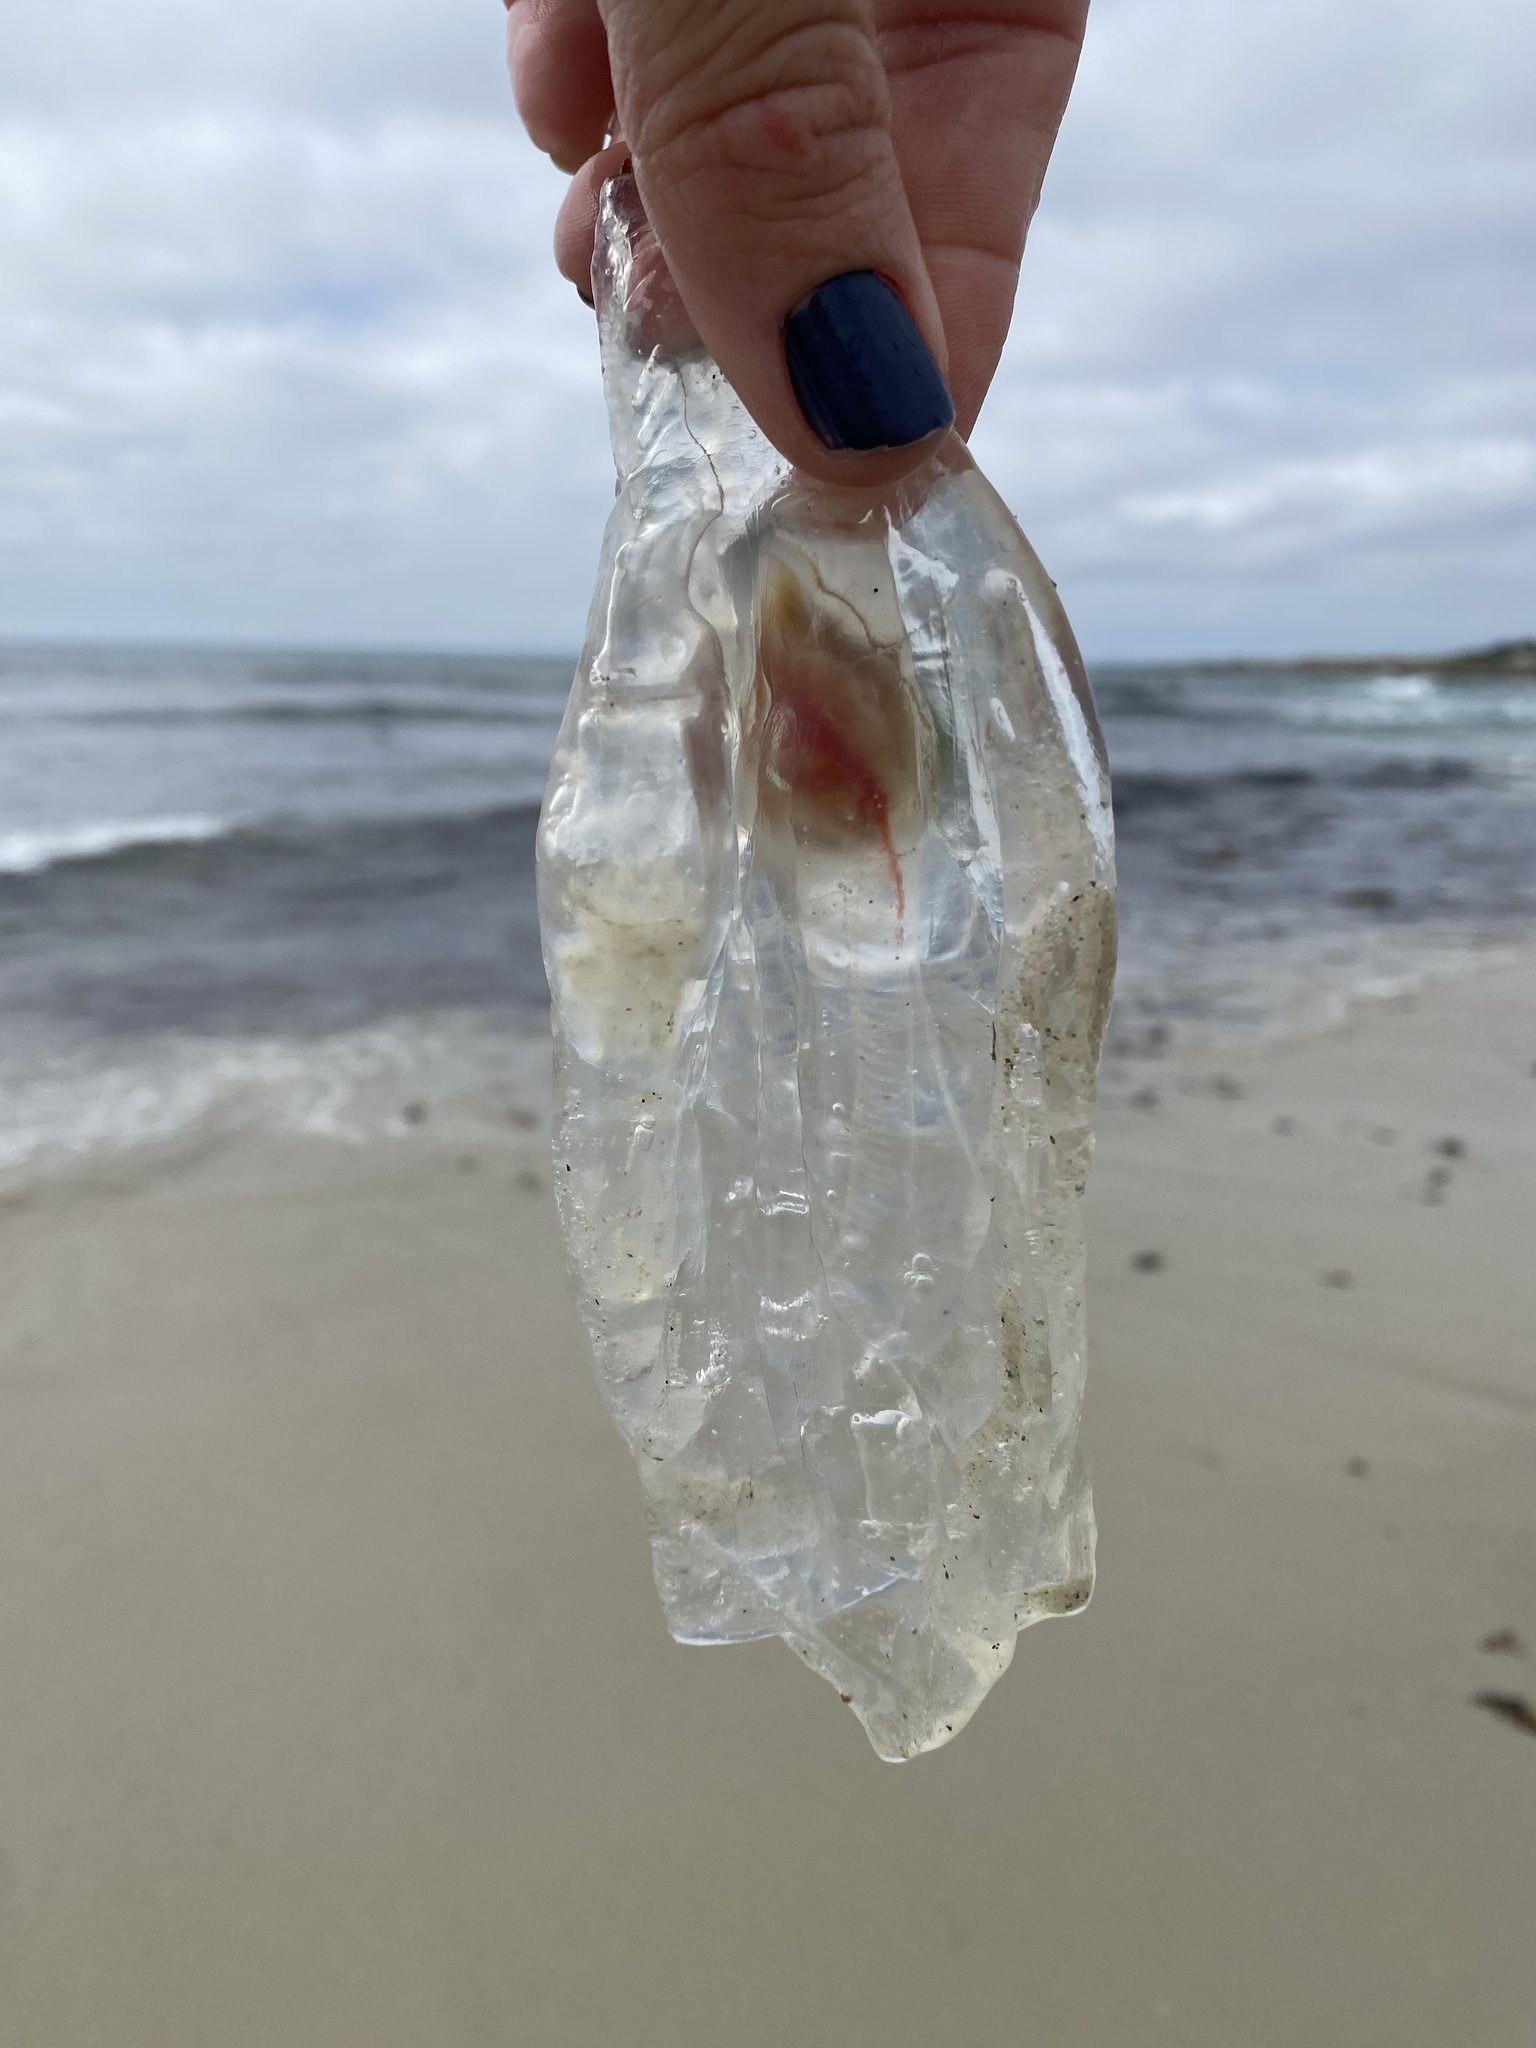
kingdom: Animalia
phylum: Chordata
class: Thaliacea
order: Salpida
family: Salpidae
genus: Thetys
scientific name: Thetys vagina
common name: Vagina salp
